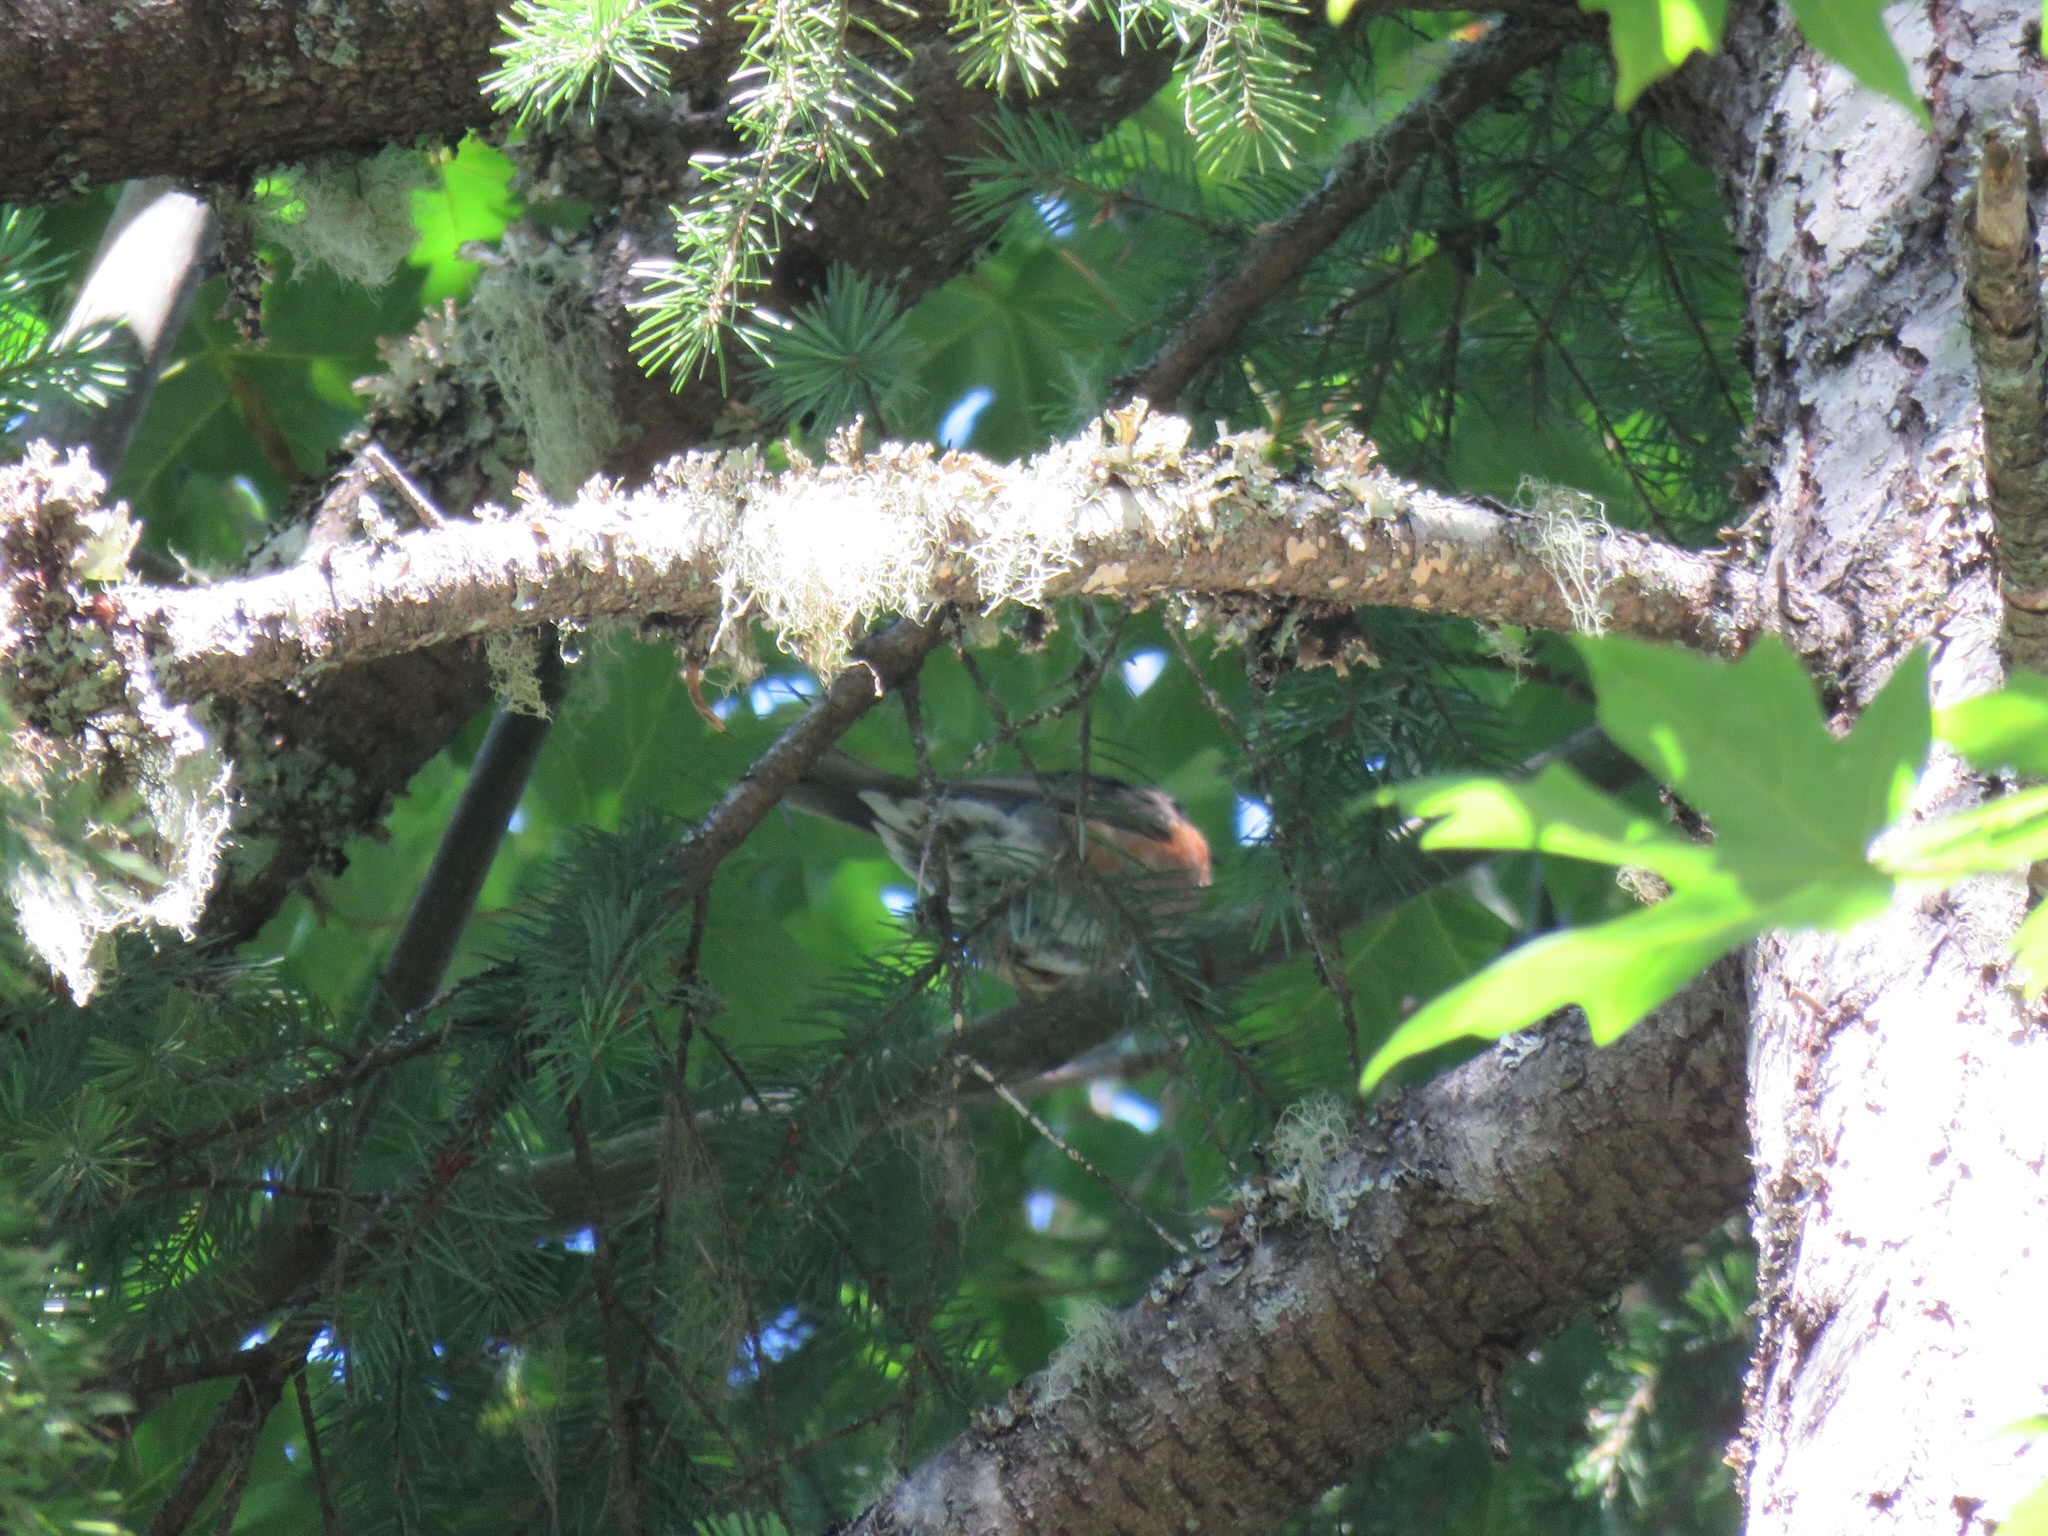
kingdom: Animalia
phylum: Chordata
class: Aves
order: Passeriformes
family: Turdidae
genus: Turdus
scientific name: Turdus migratorius
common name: American robin
